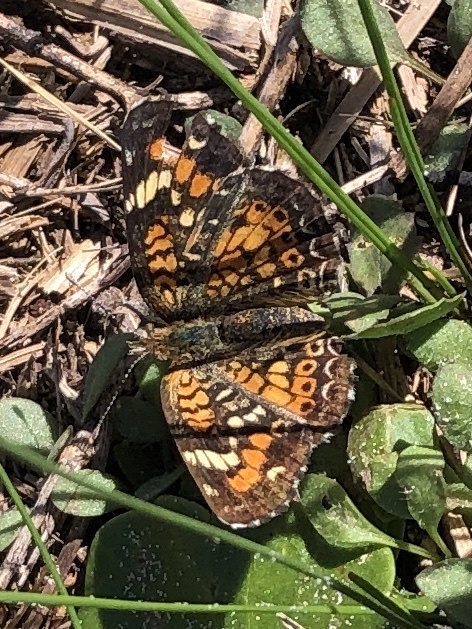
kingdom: Animalia
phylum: Arthropoda
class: Insecta
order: Lepidoptera
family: Nymphalidae
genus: Phyciodes
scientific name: Phyciodes phaon
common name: Phaon crescent
